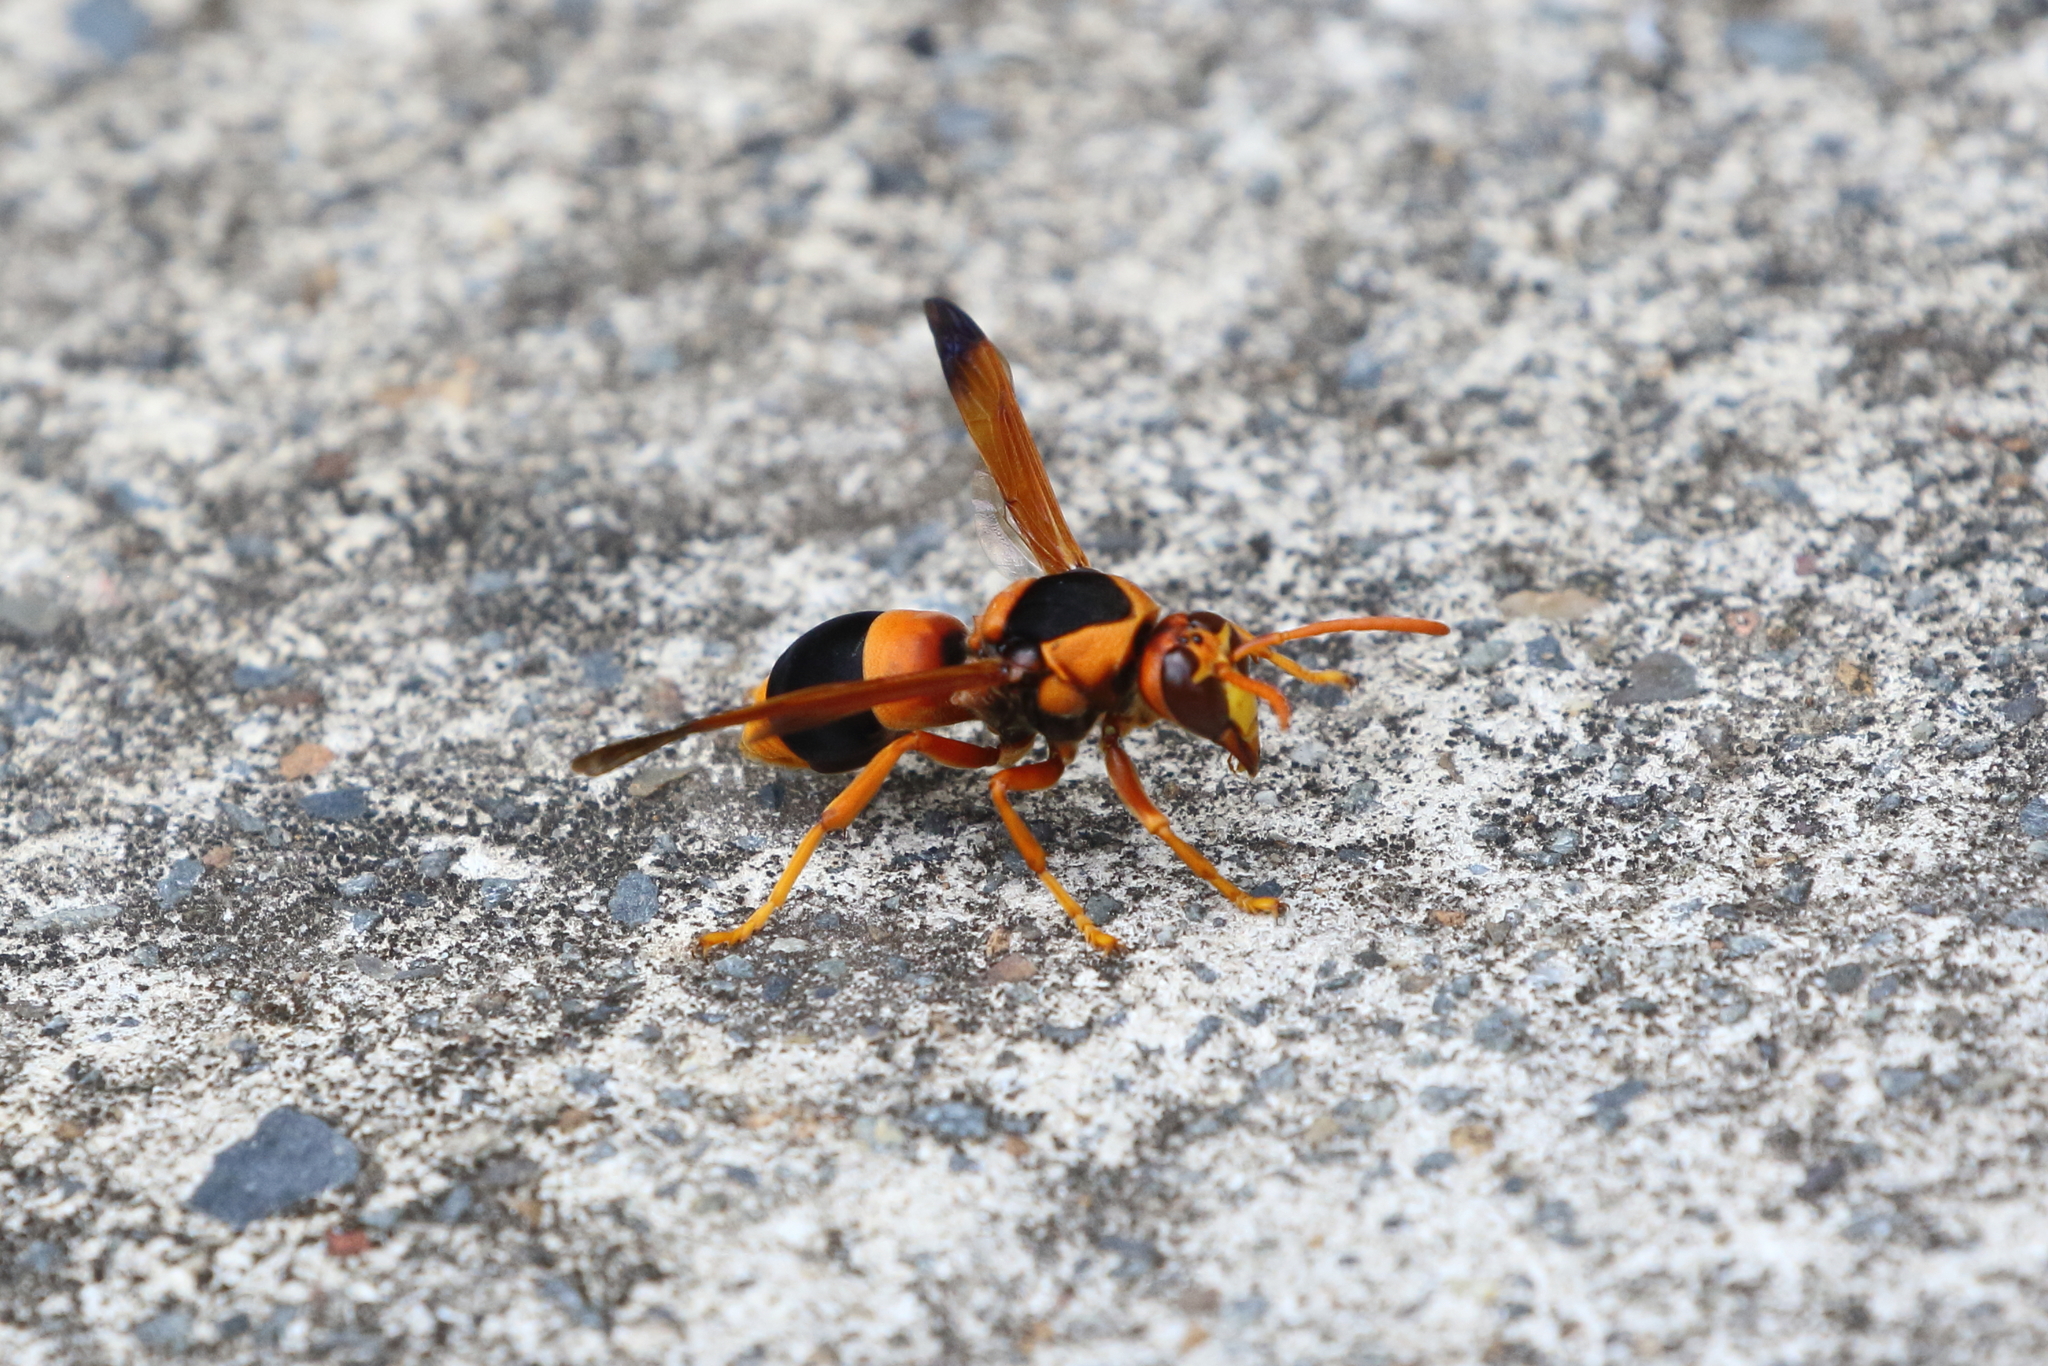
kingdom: Animalia
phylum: Arthropoda
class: Insecta
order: Hymenoptera
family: Eumenidae
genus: Abispa
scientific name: Abispa ephippium
